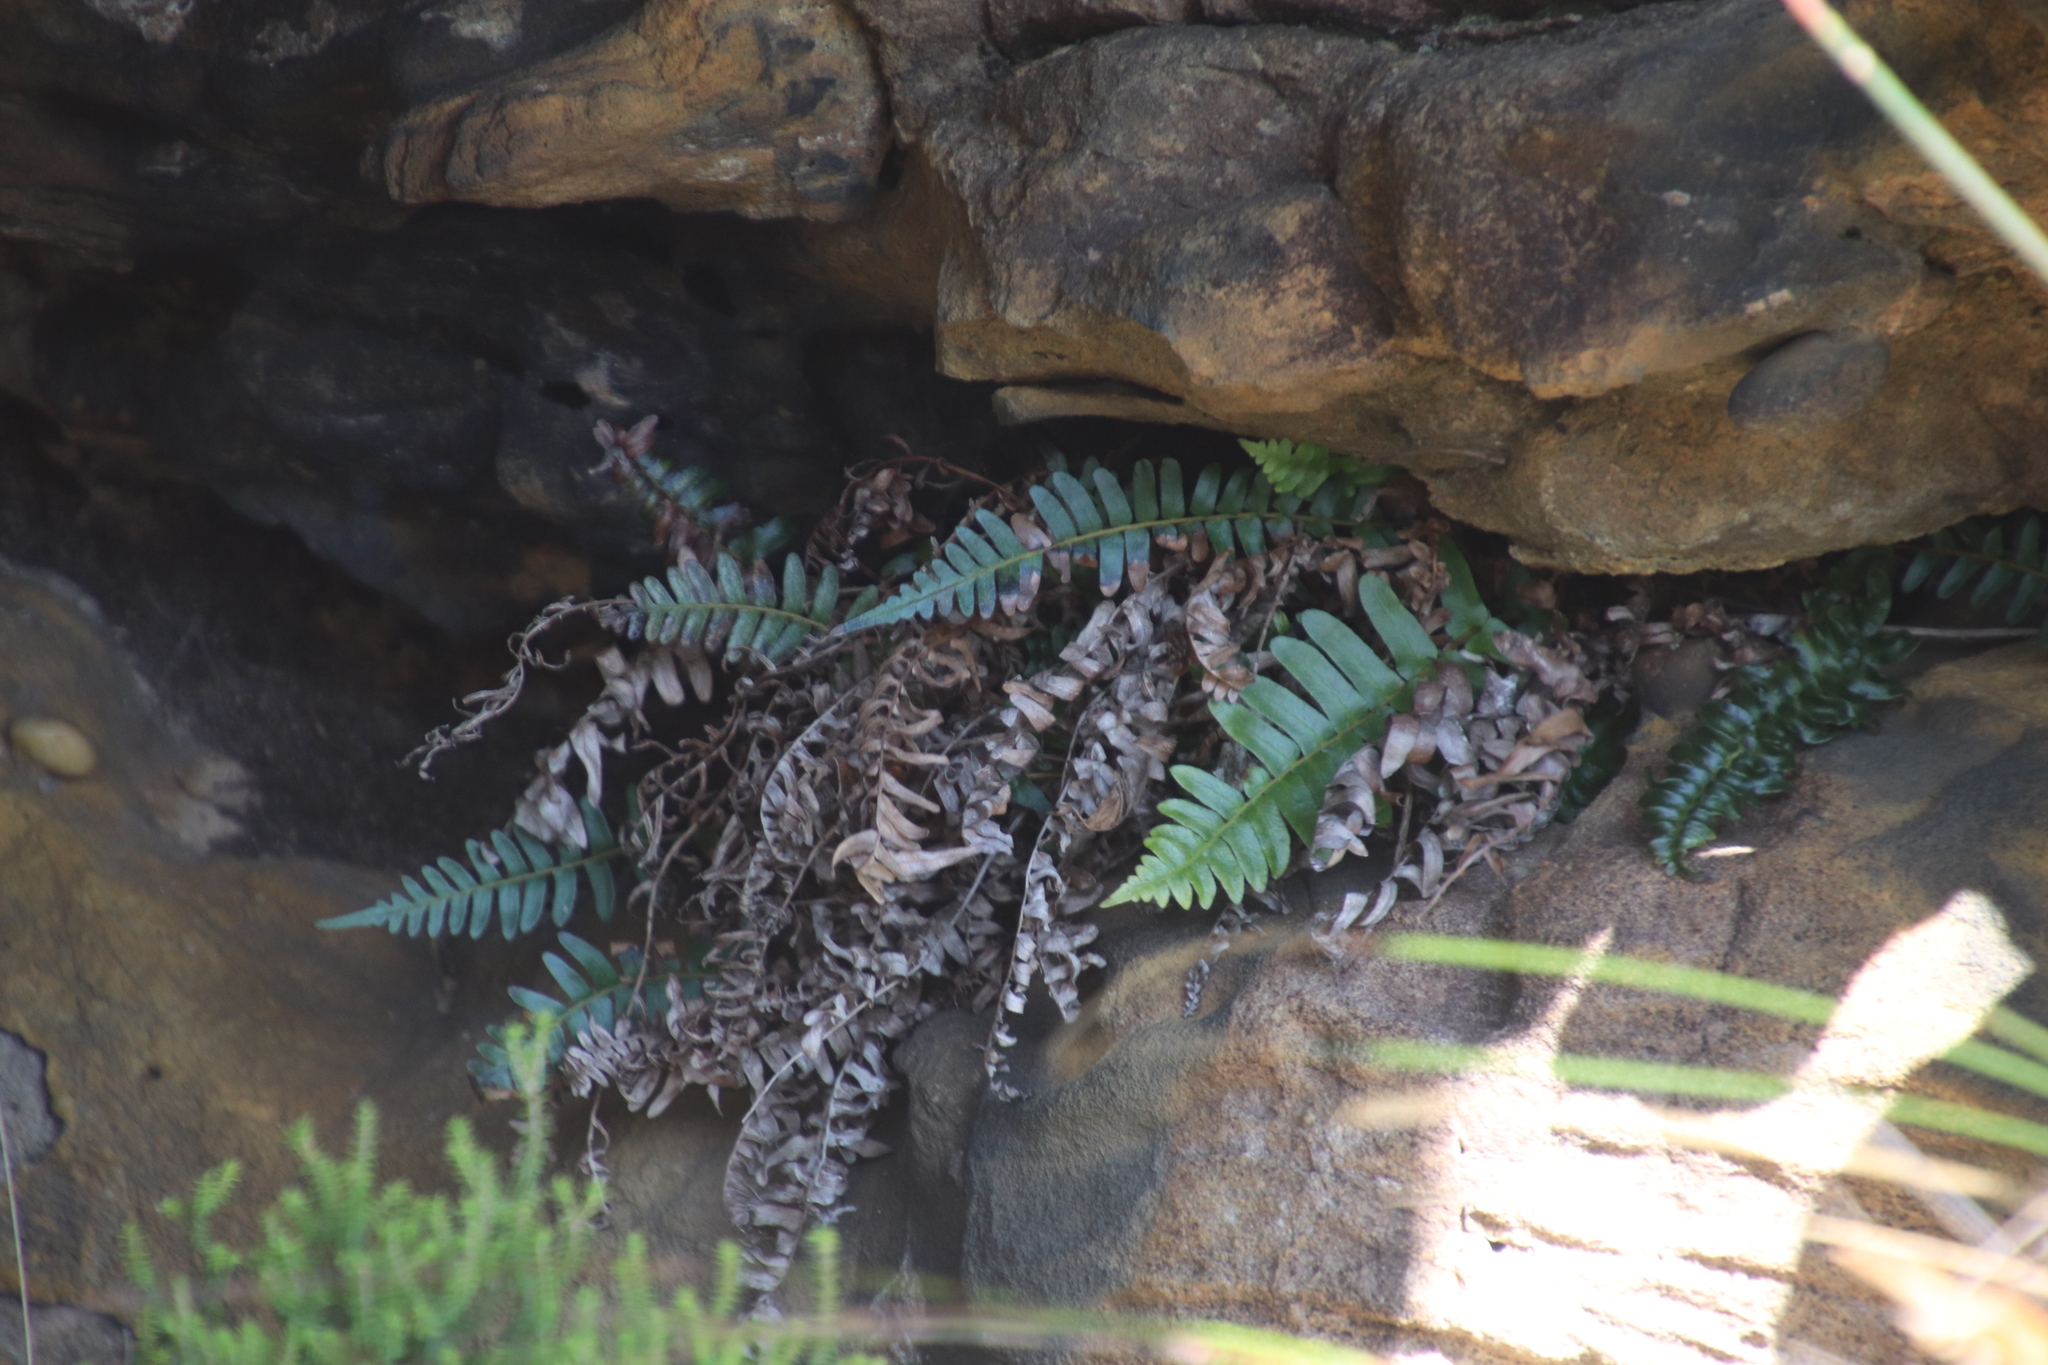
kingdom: Plantae
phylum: Tracheophyta
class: Polypodiopsida
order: Polypodiales
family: Blechnaceae
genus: Blechnum
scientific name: Blechnum punctulatum
